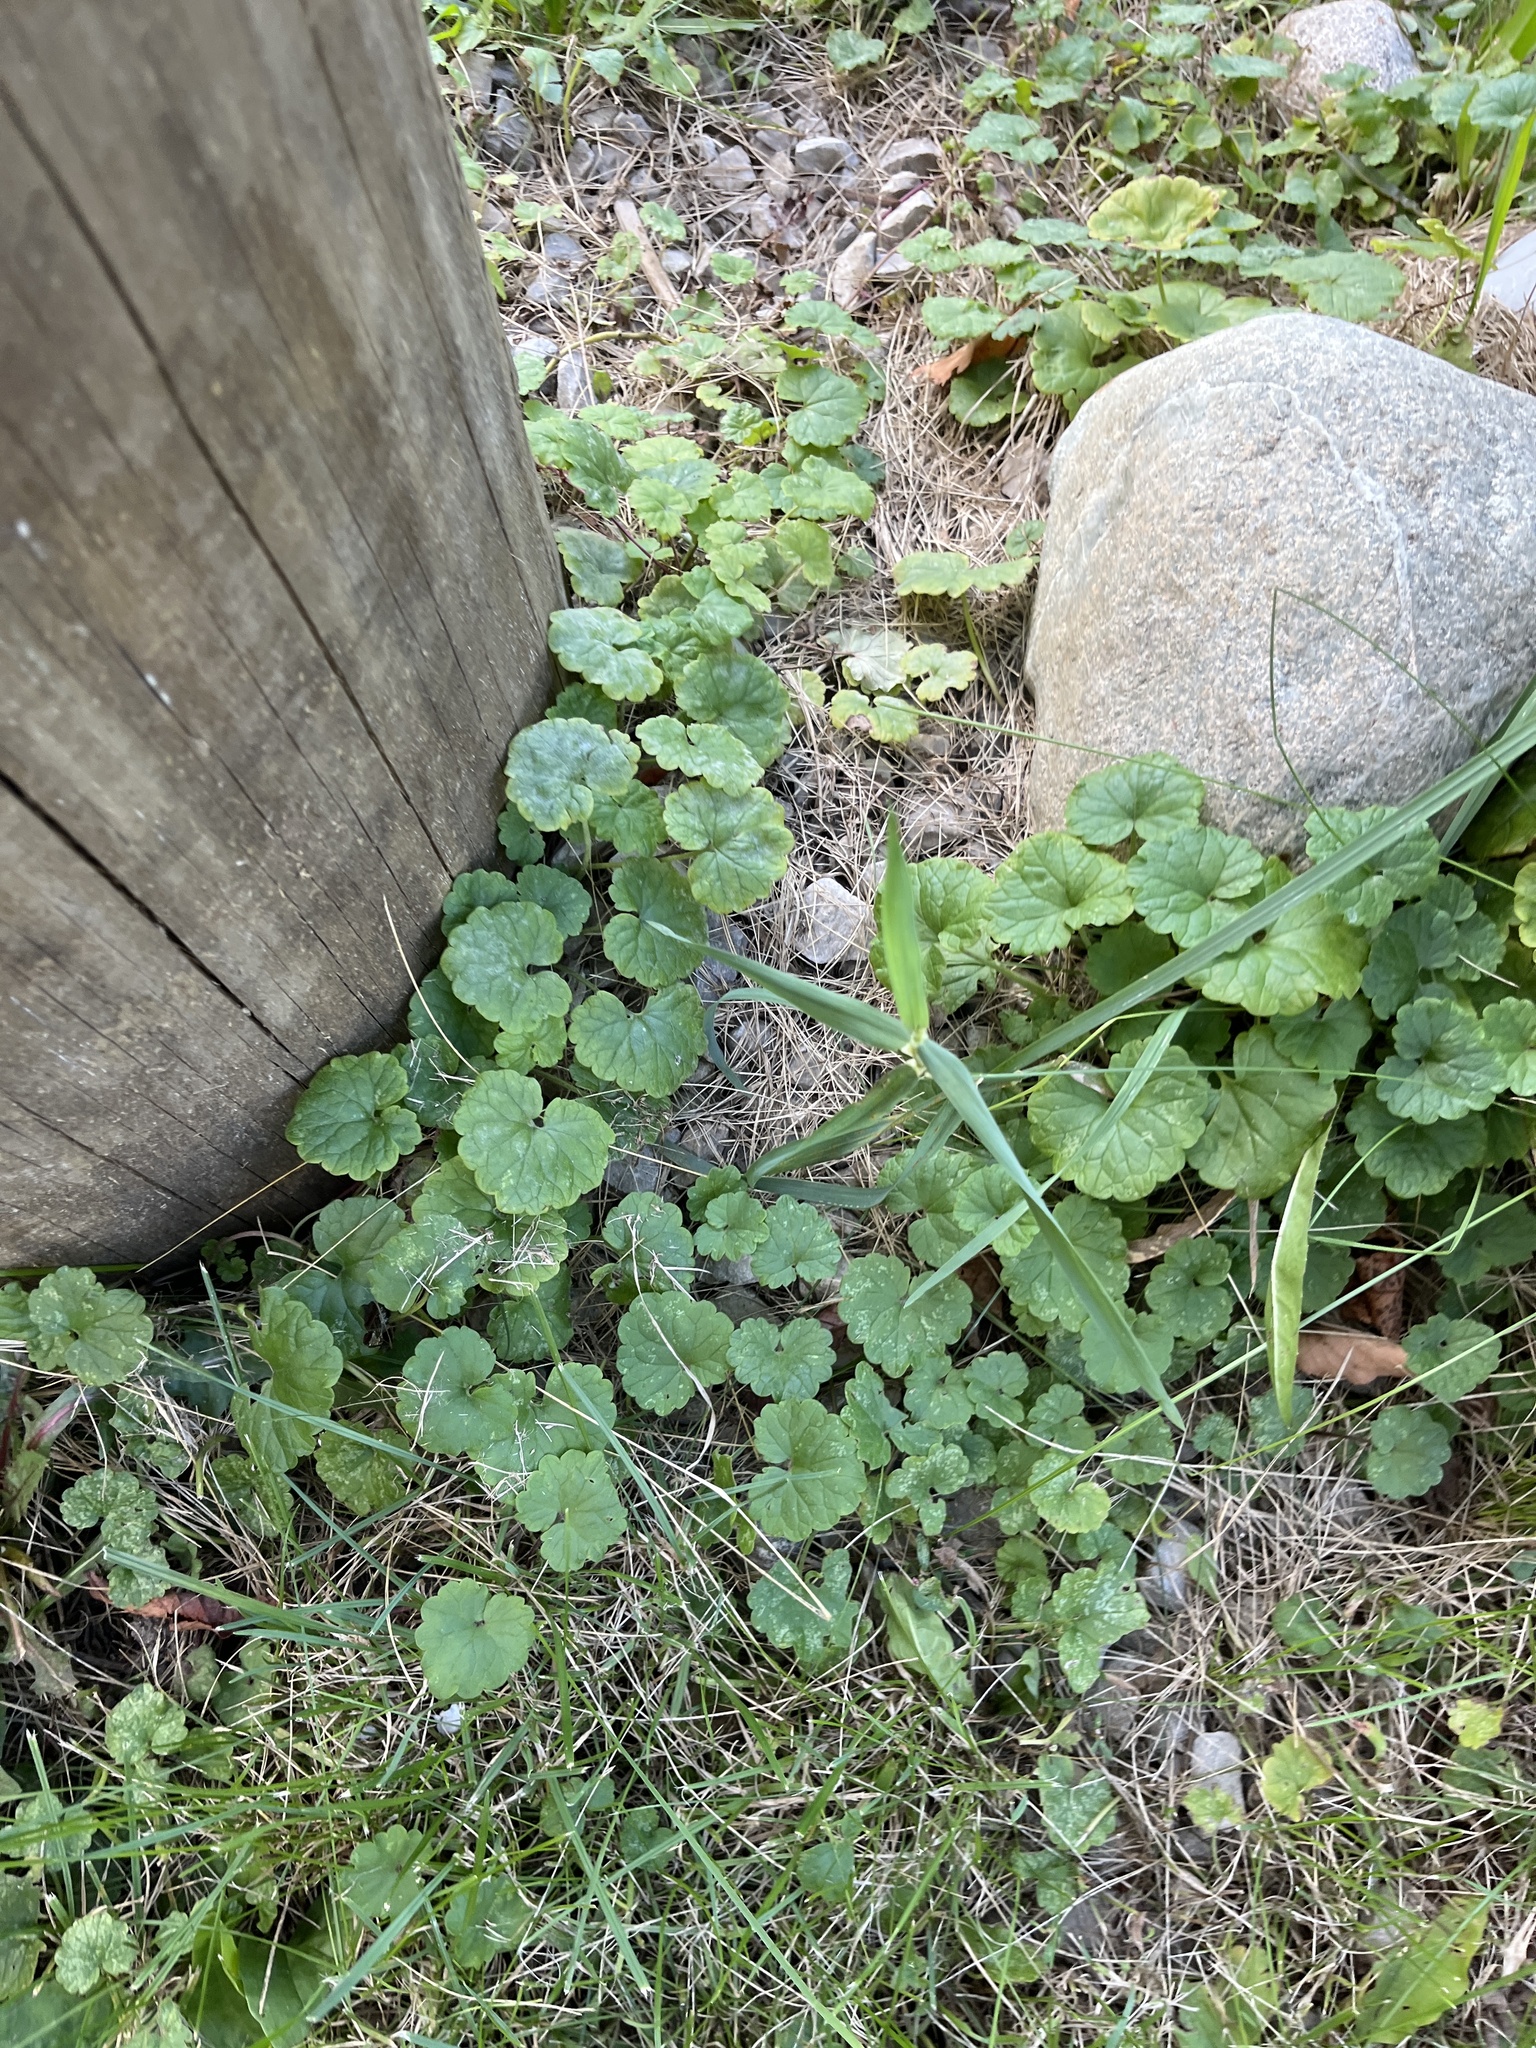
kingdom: Plantae
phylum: Tracheophyta
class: Magnoliopsida
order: Lamiales
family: Lamiaceae
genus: Glechoma
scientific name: Glechoma hederacea
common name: Ground ivy
